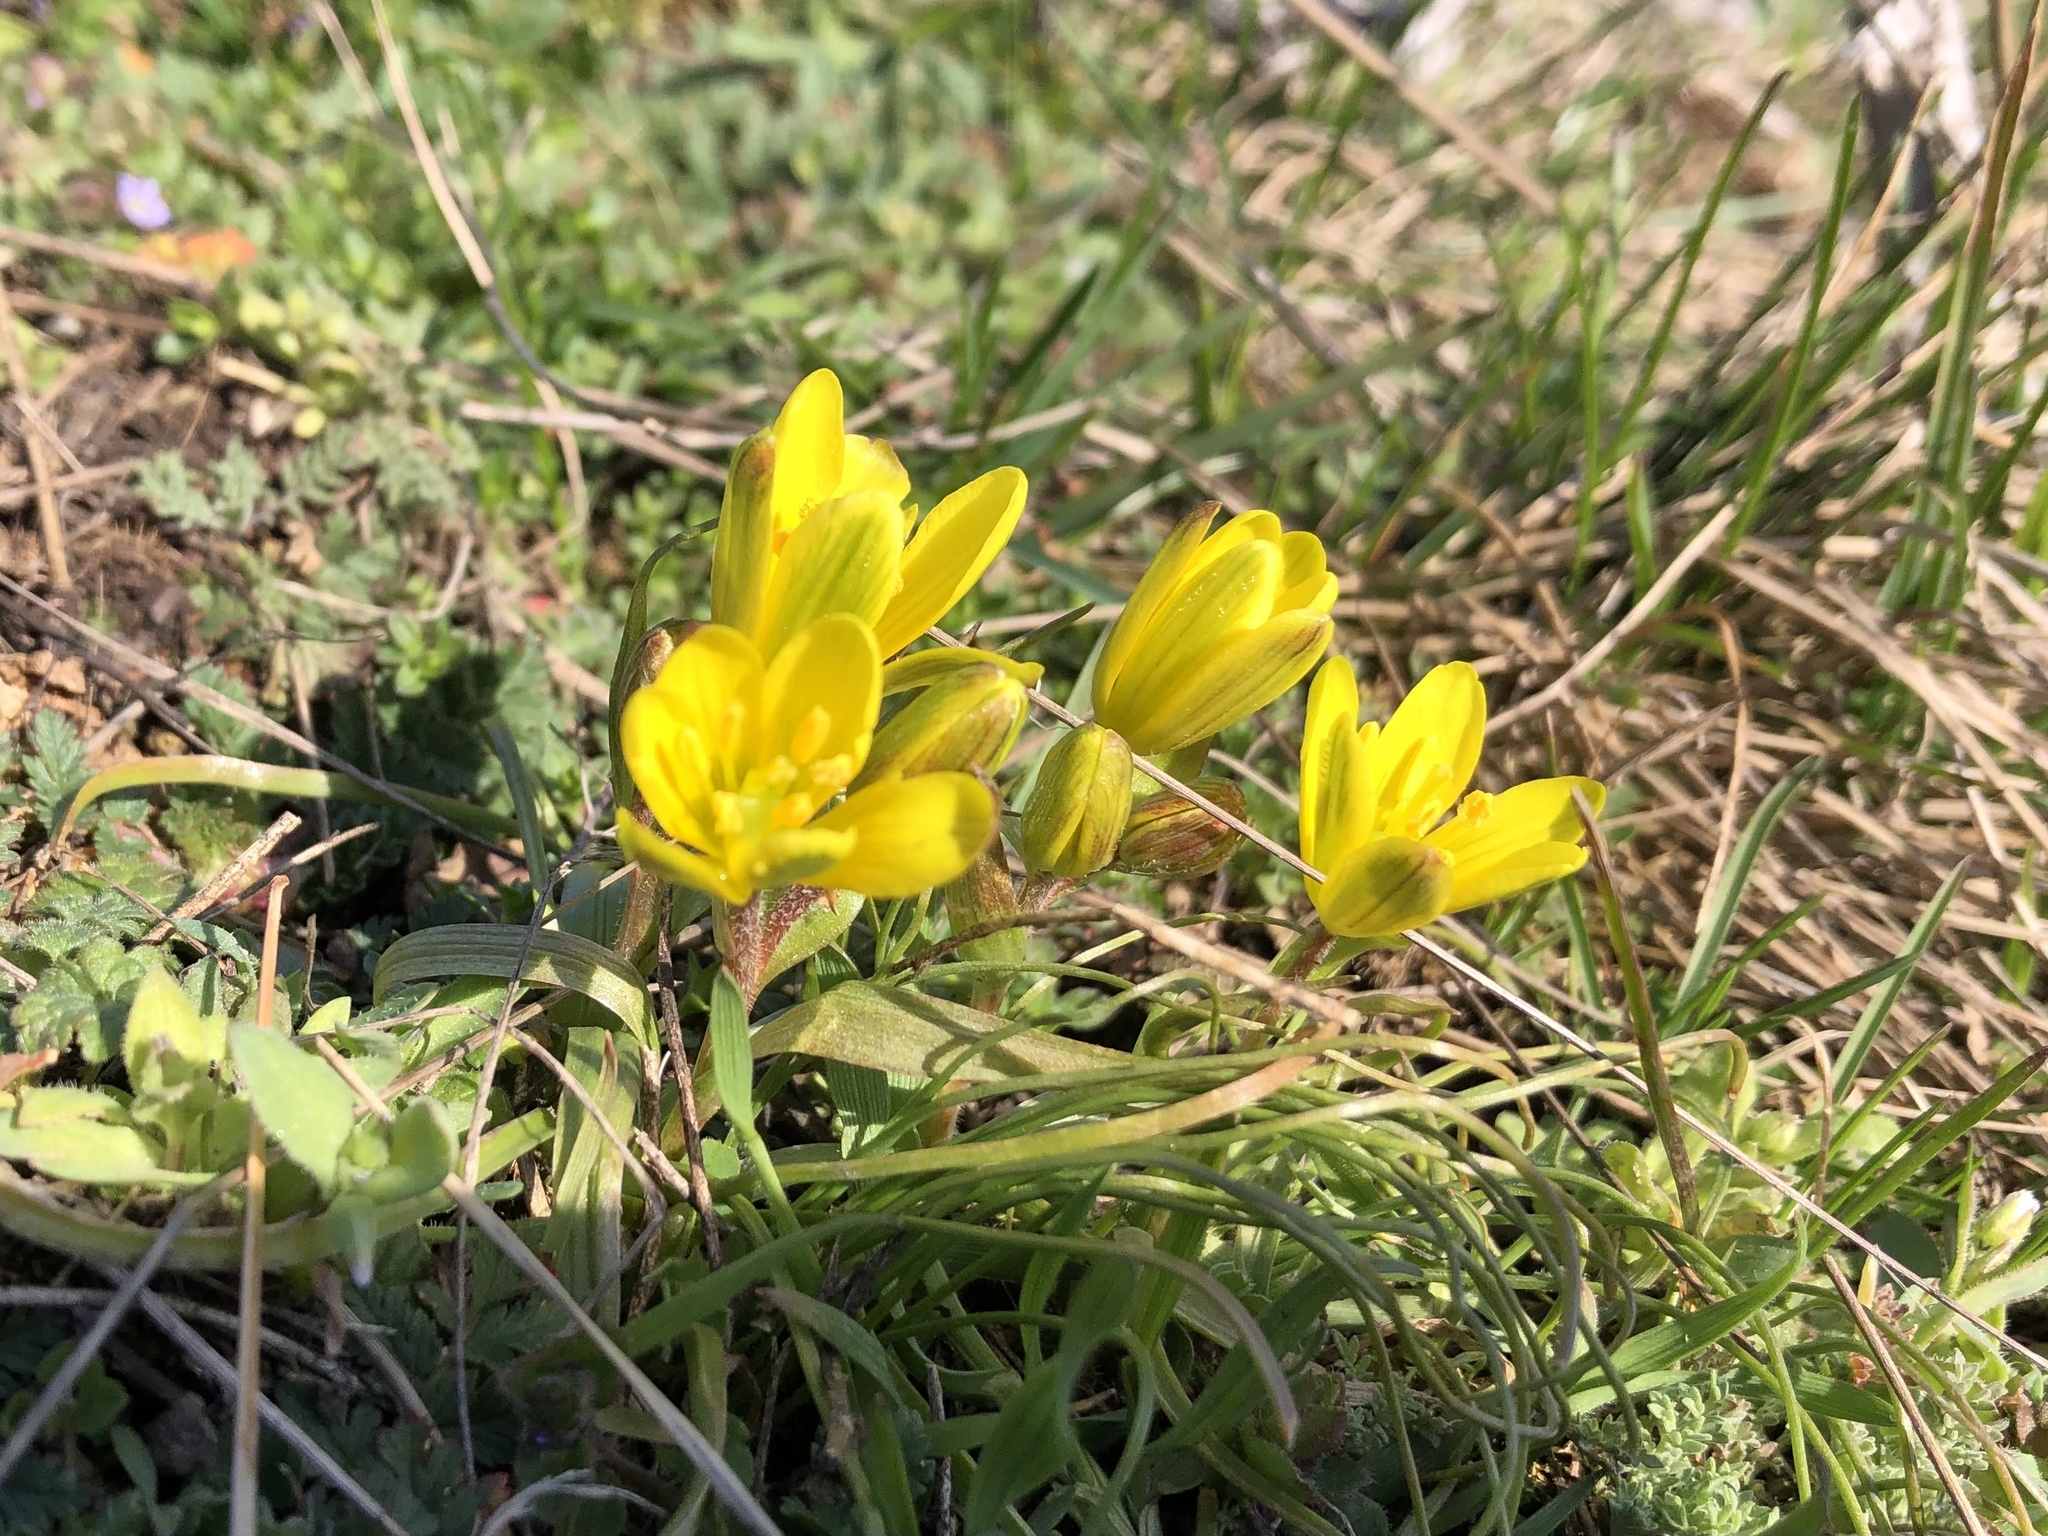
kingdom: Plantae
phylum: Tracheophyta
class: Liliopsida
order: Liliales
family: Liliaceae
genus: Gagea
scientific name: Gagea bohemica
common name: Early star-of-bethlehem
